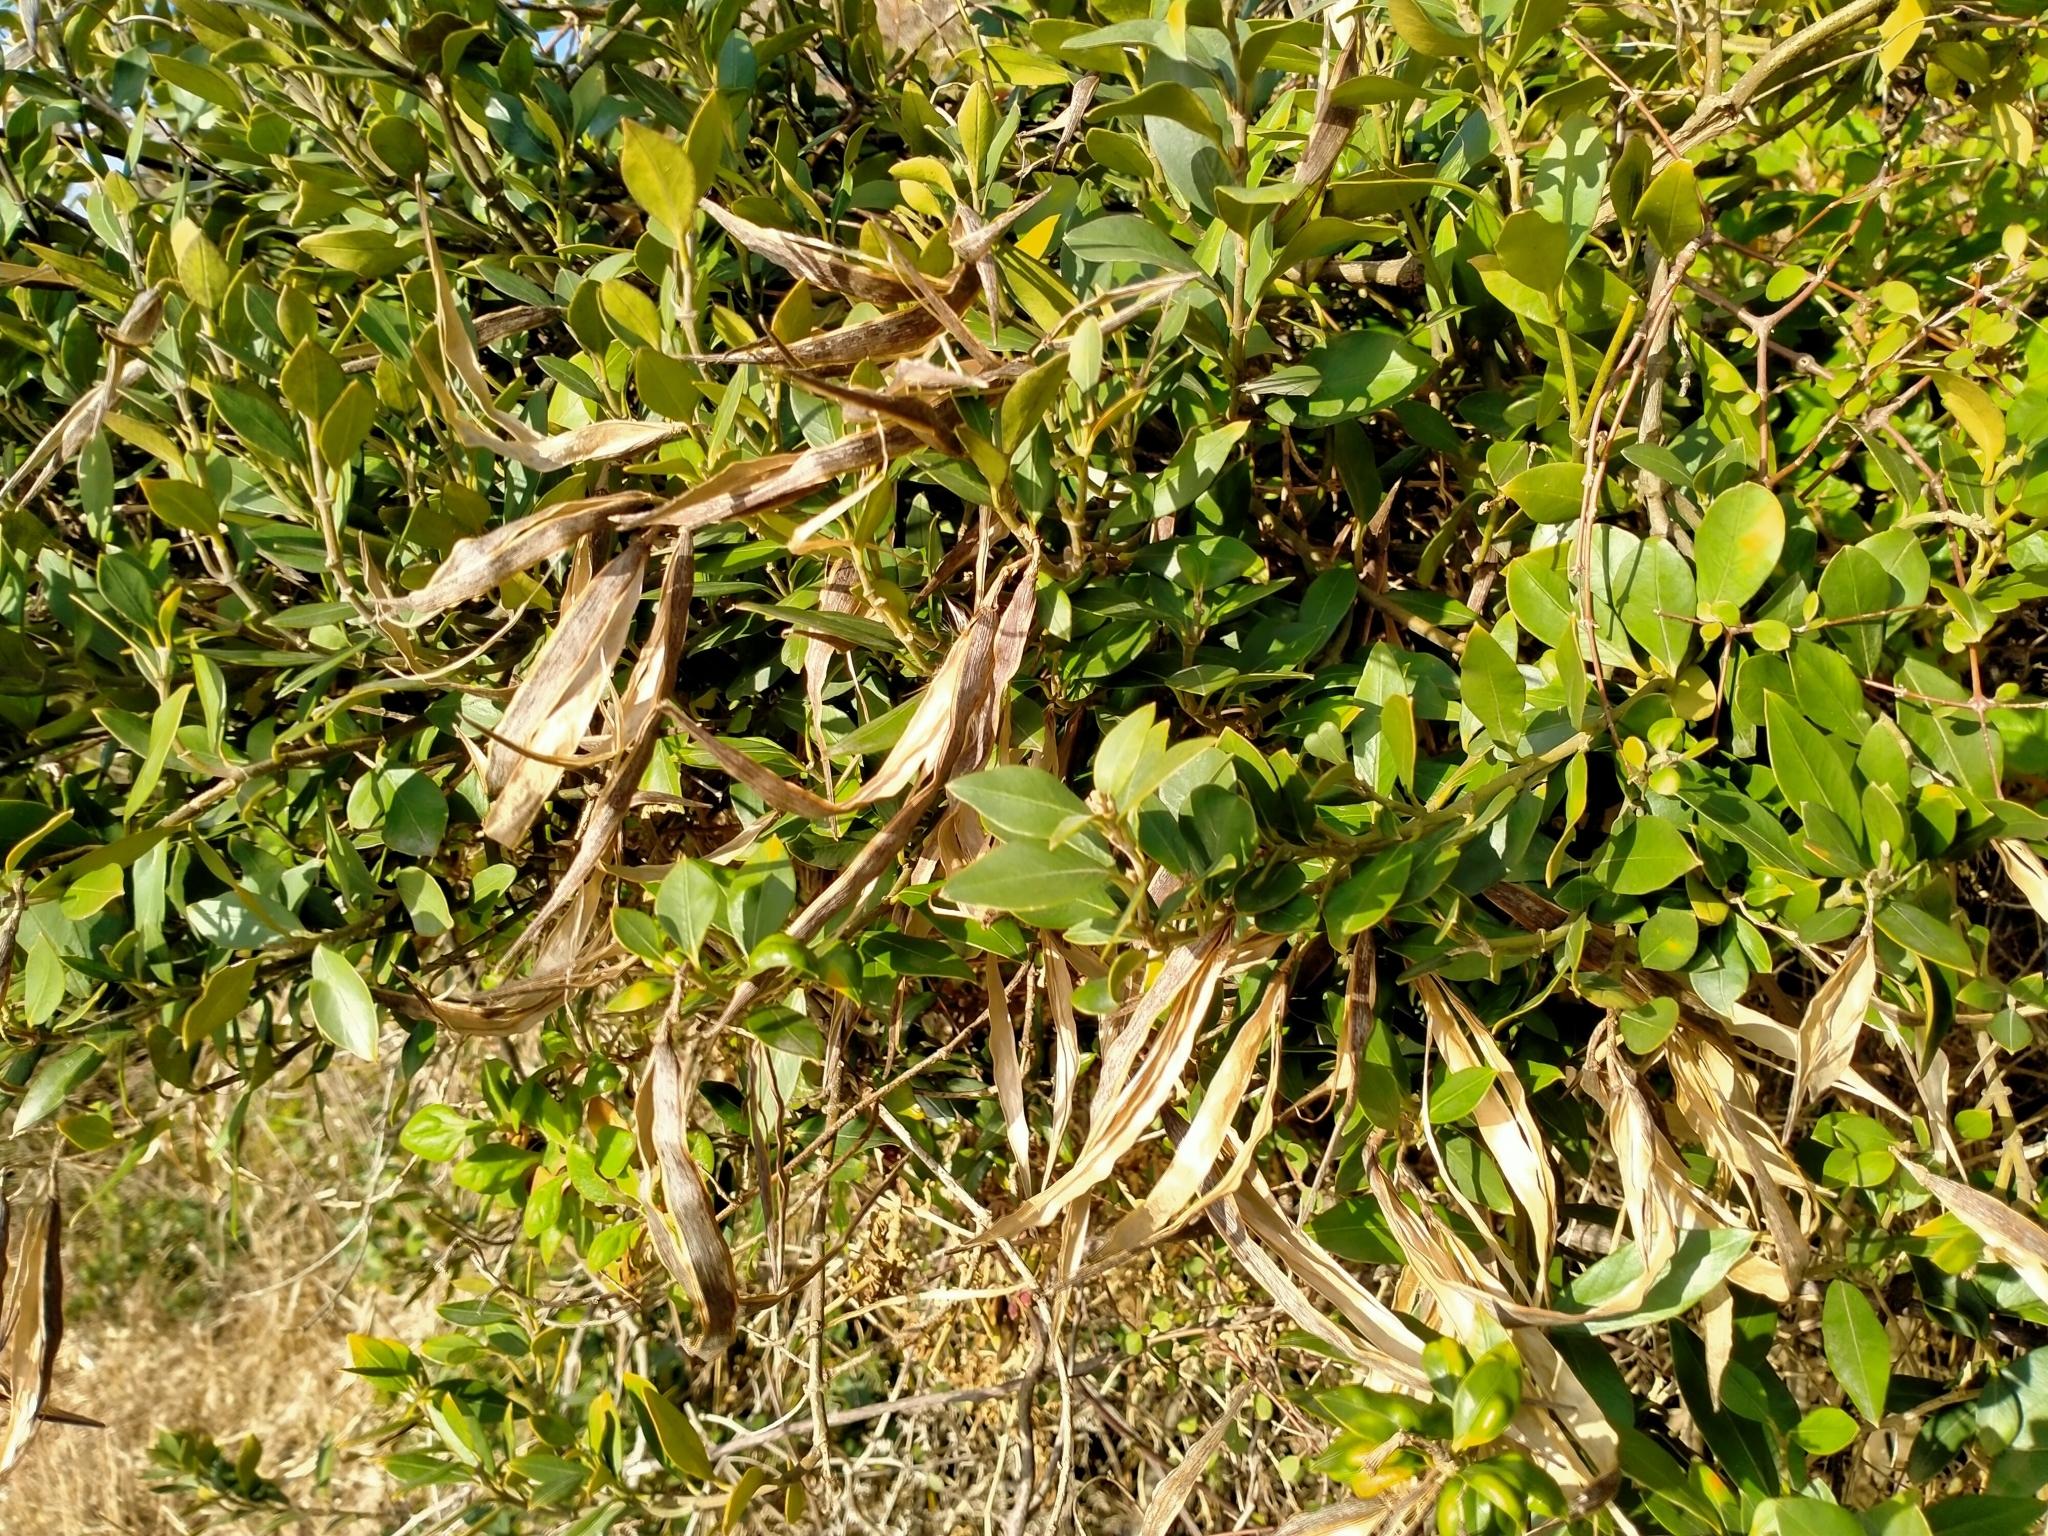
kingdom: Plantae
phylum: Tracheophyta
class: Magnoliopsida
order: Gentianales
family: Apocynaceae
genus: Parsonsia
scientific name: Parsonsia heterophylla
